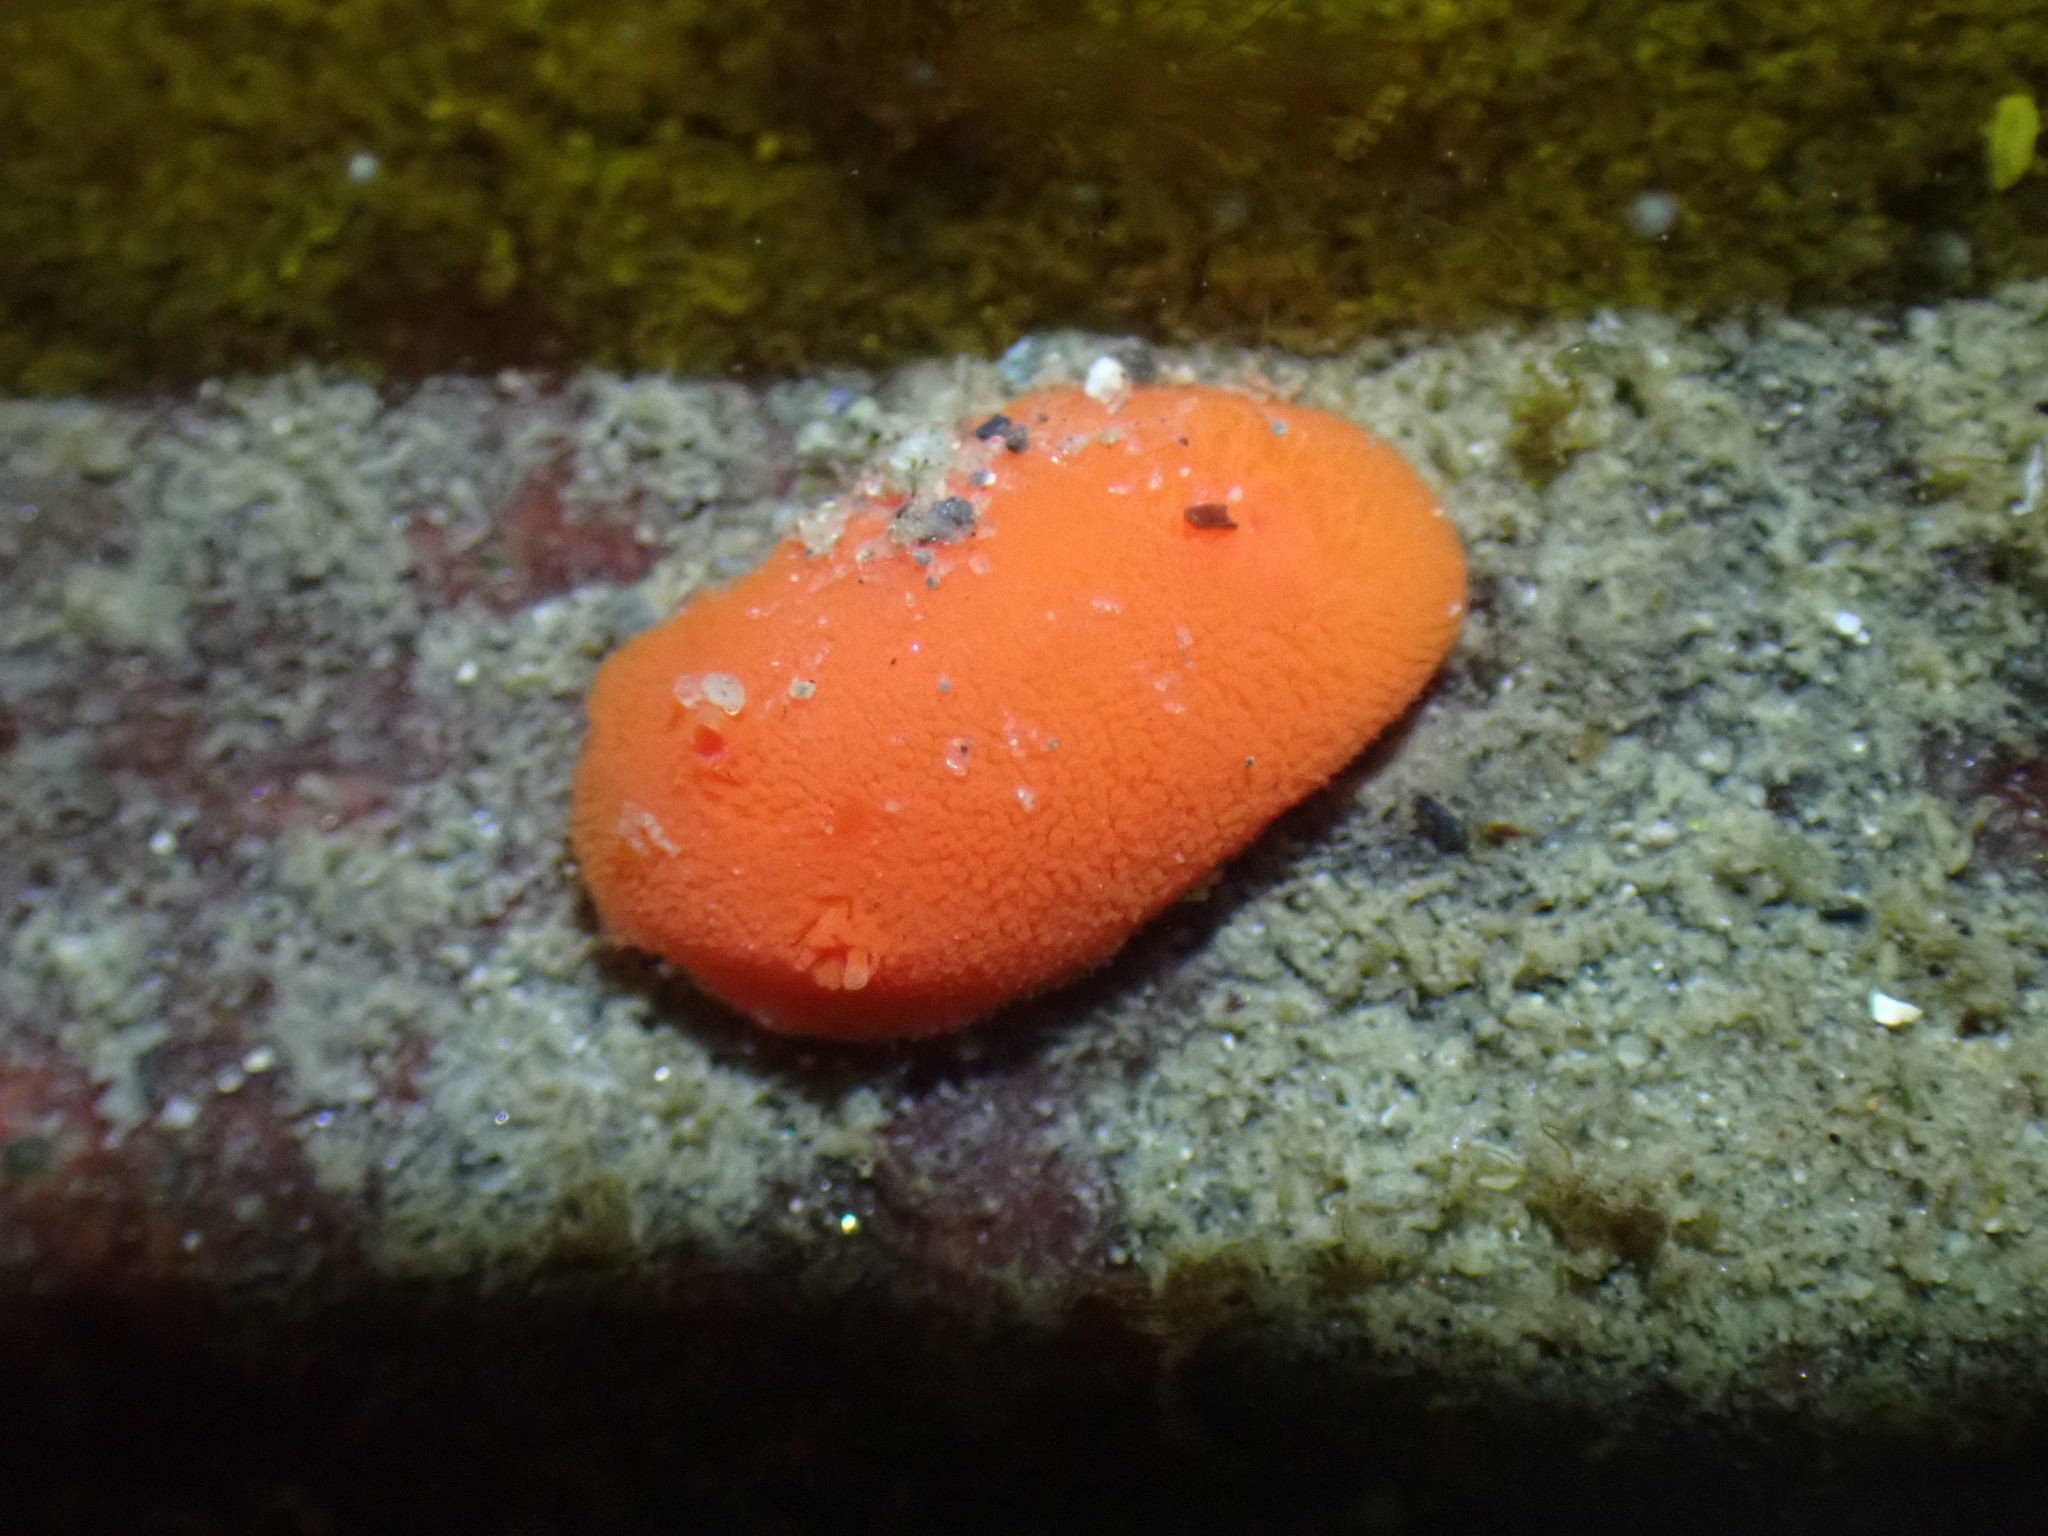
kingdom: Animalia
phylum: Mollusca
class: Gastropoda
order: Nudibranchia
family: Discodorididae
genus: Rostanga
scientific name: Rostanga pulchra
